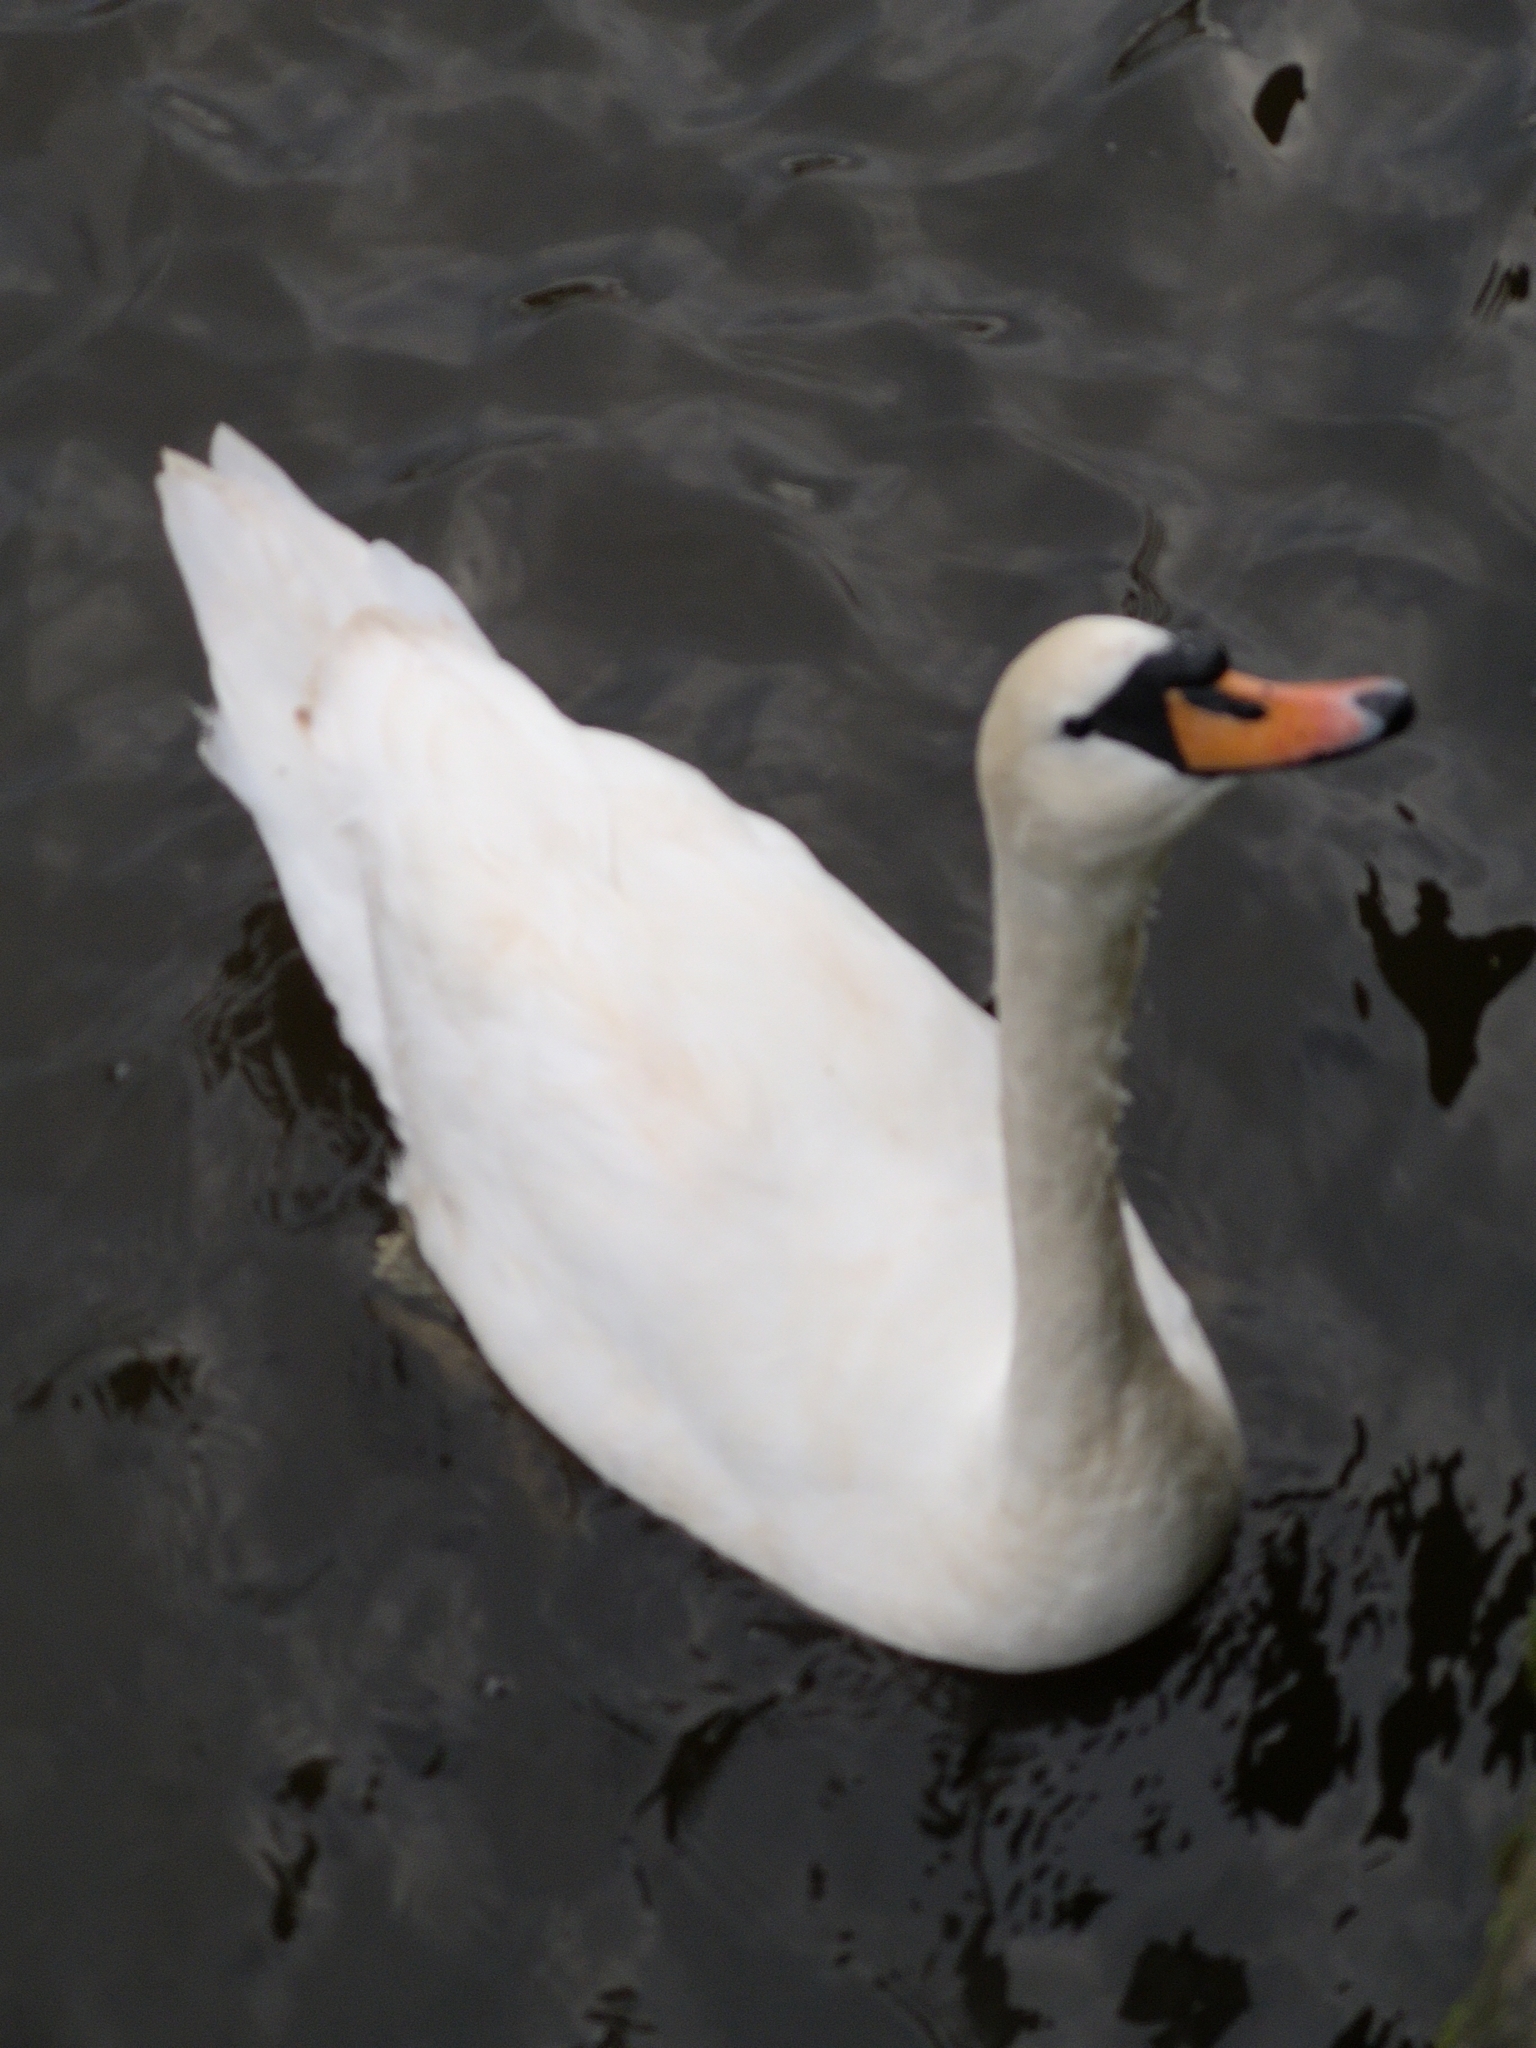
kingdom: Animalia
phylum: Chordata
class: Aves
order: Anseriformes
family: Anatidae
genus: Cygnus
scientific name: Cygnus olor
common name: Mute swan
